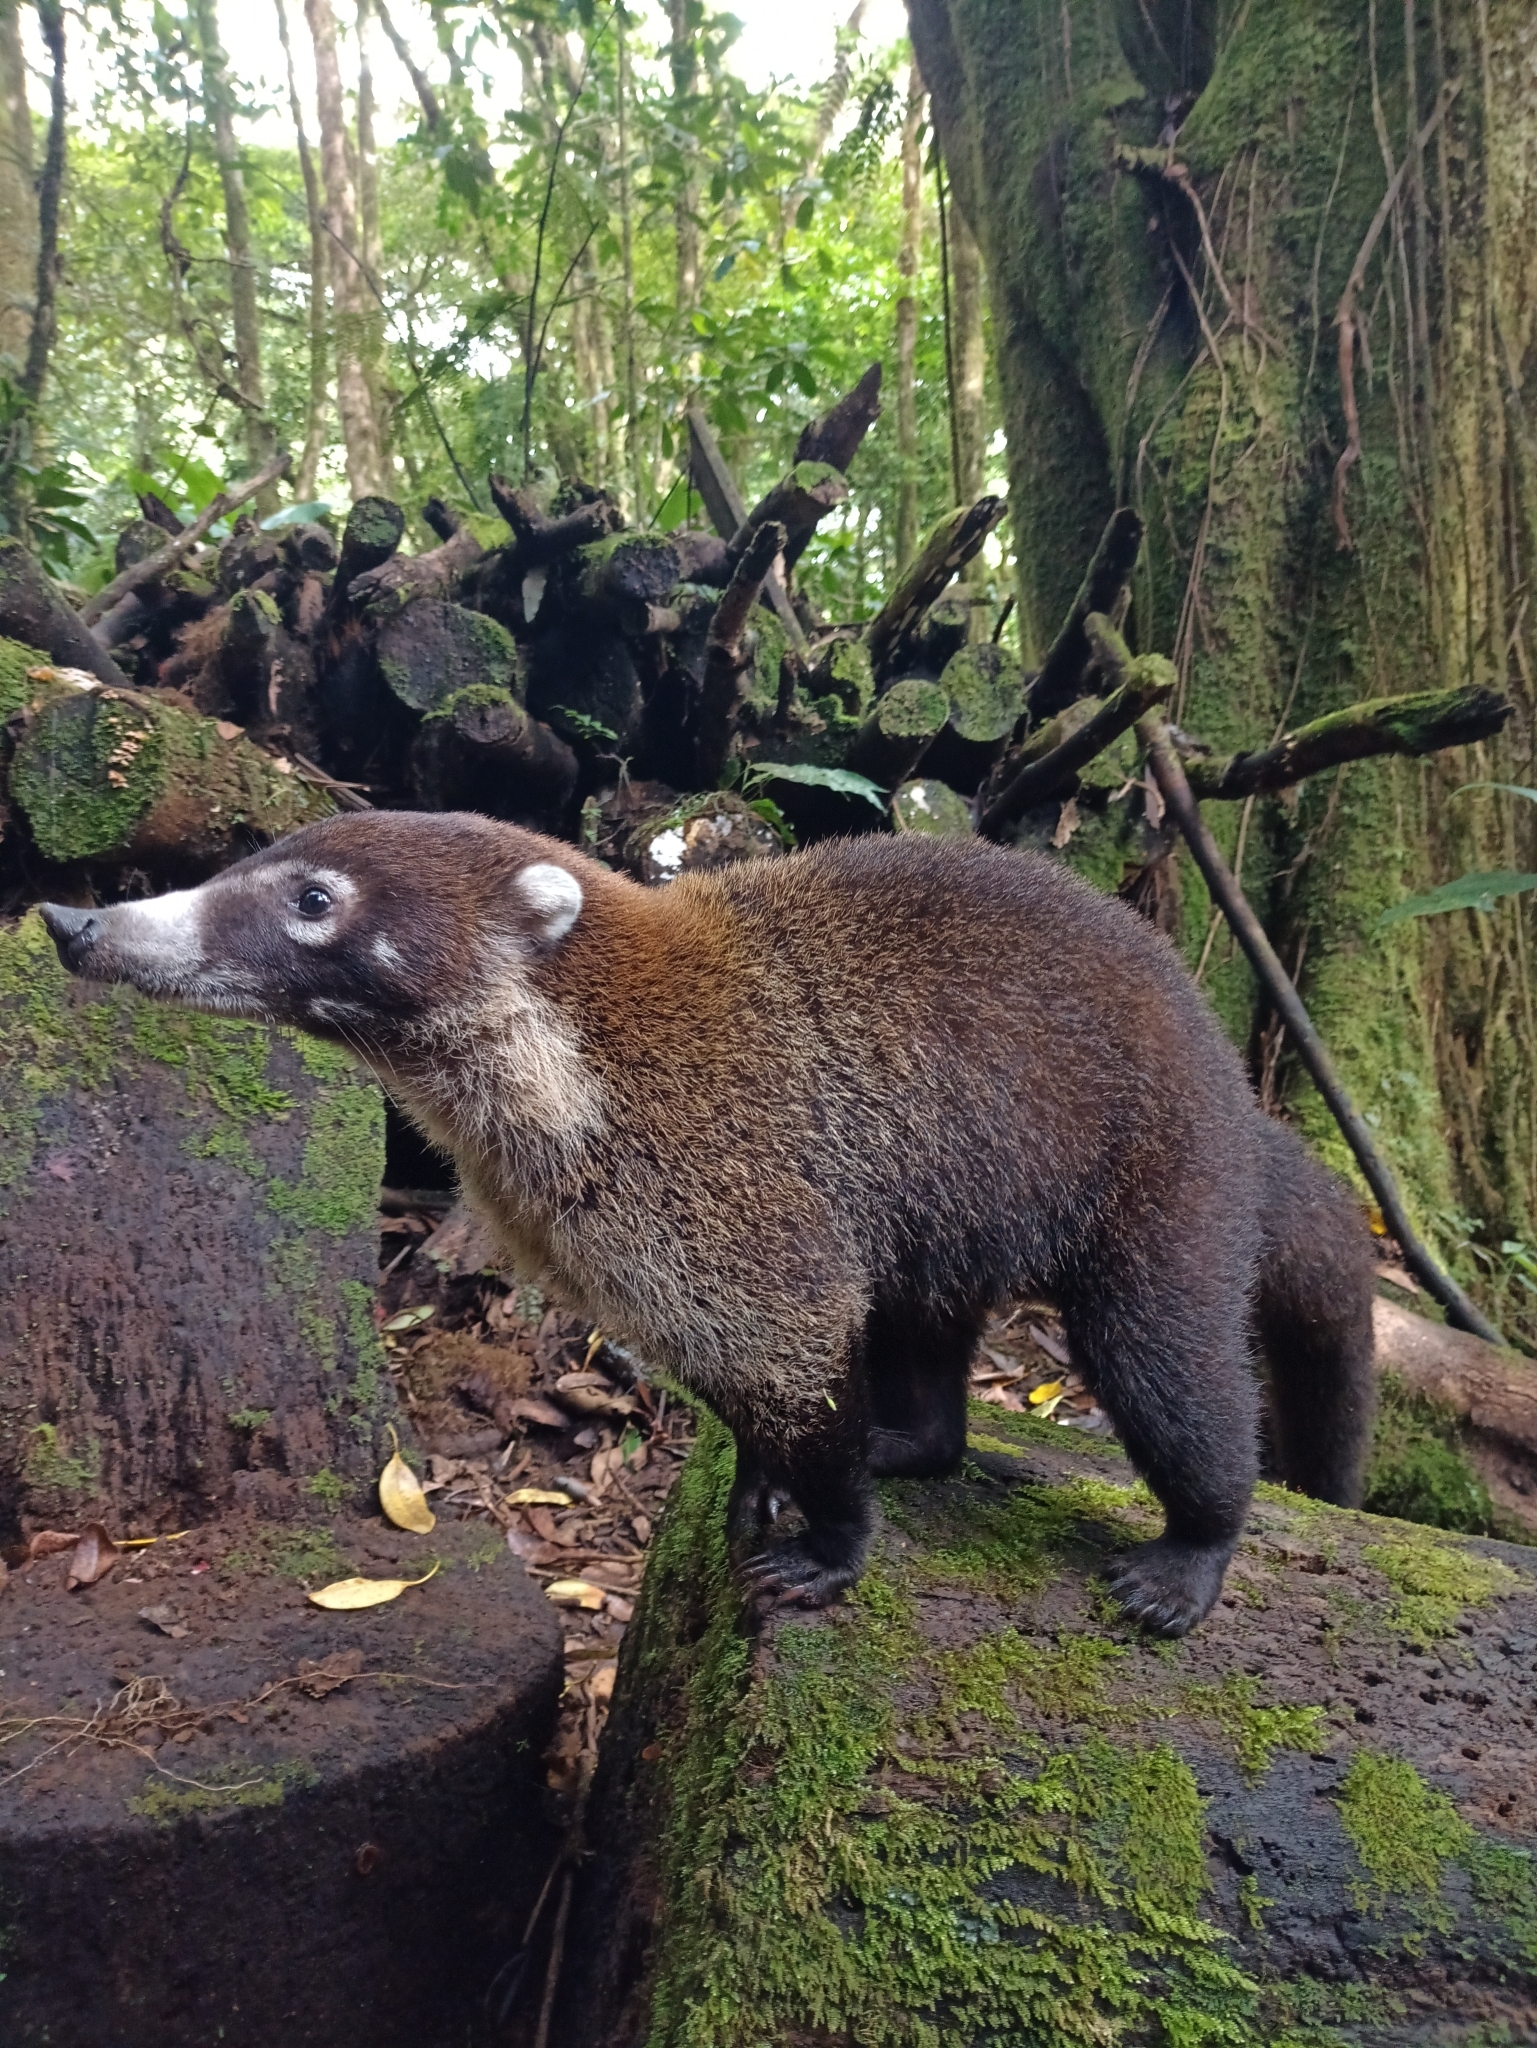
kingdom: Animalia
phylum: Chordata
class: Mammalia
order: Carnivora
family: Procyonidae
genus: Nasua
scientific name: Nasua narica
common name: White-nosed coati
